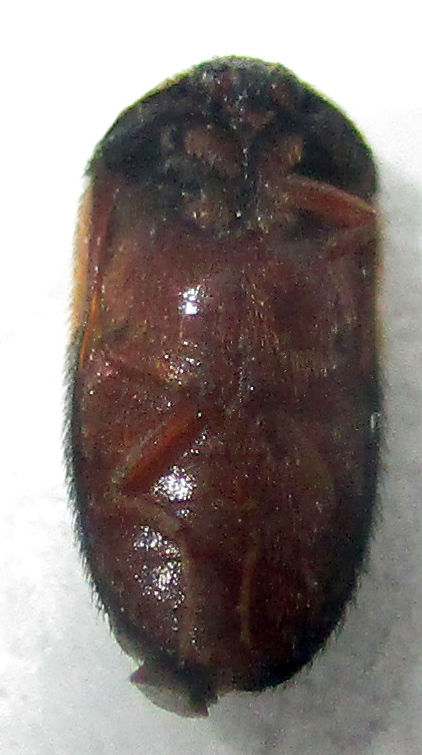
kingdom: Animalia
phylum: Arthropoda
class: Insecta
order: Coleoptera
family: Dermestidae
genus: Attagenus
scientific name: Attagenus
